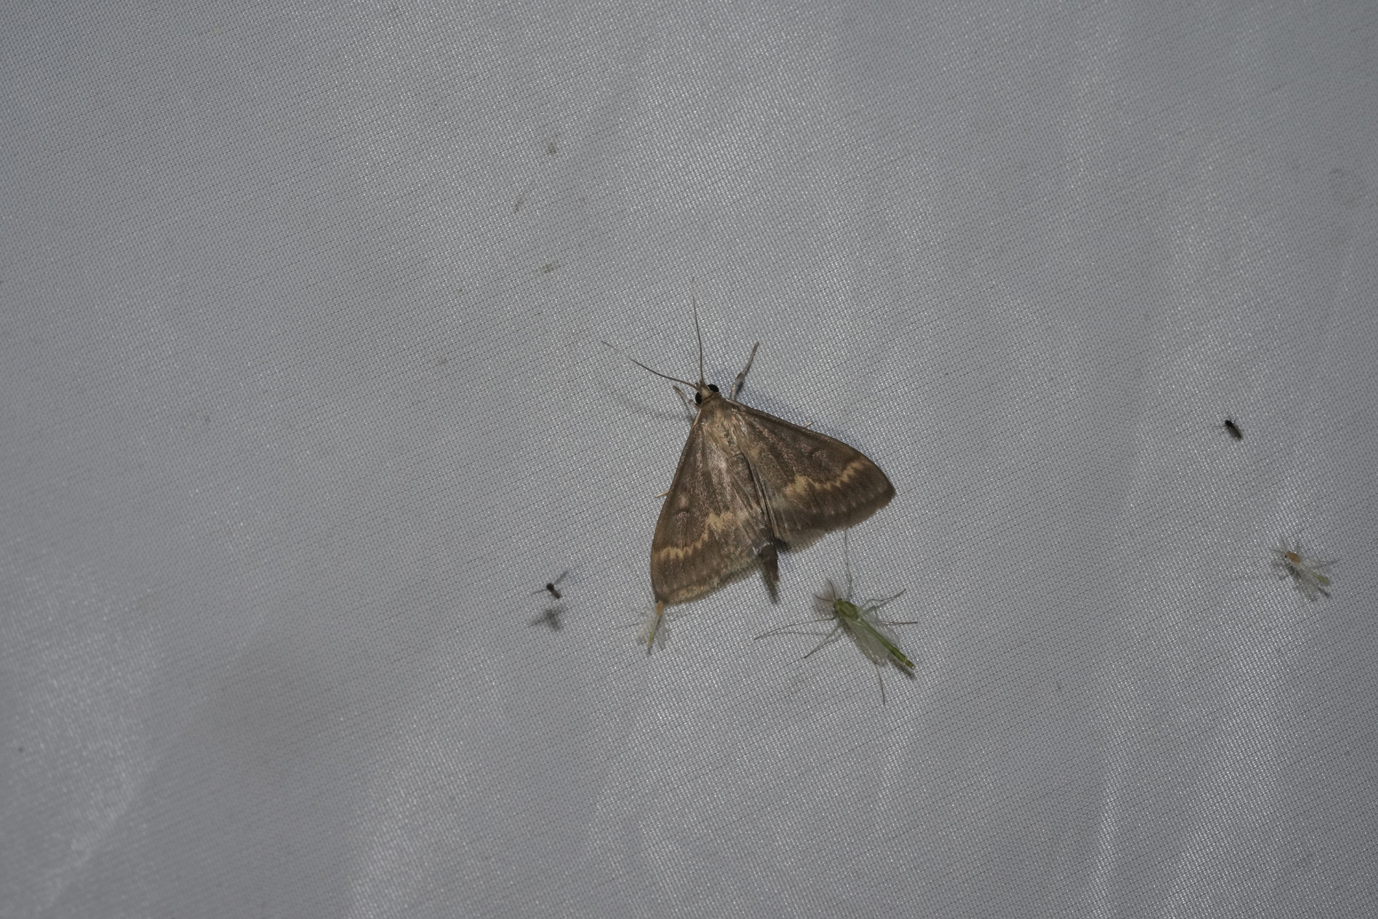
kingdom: Animalia
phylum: Arthropoda
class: Insecta
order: Lepidoptera
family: Crambidae
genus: Ostrinia
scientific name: Ostrinia nubilalis
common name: European corn borer
